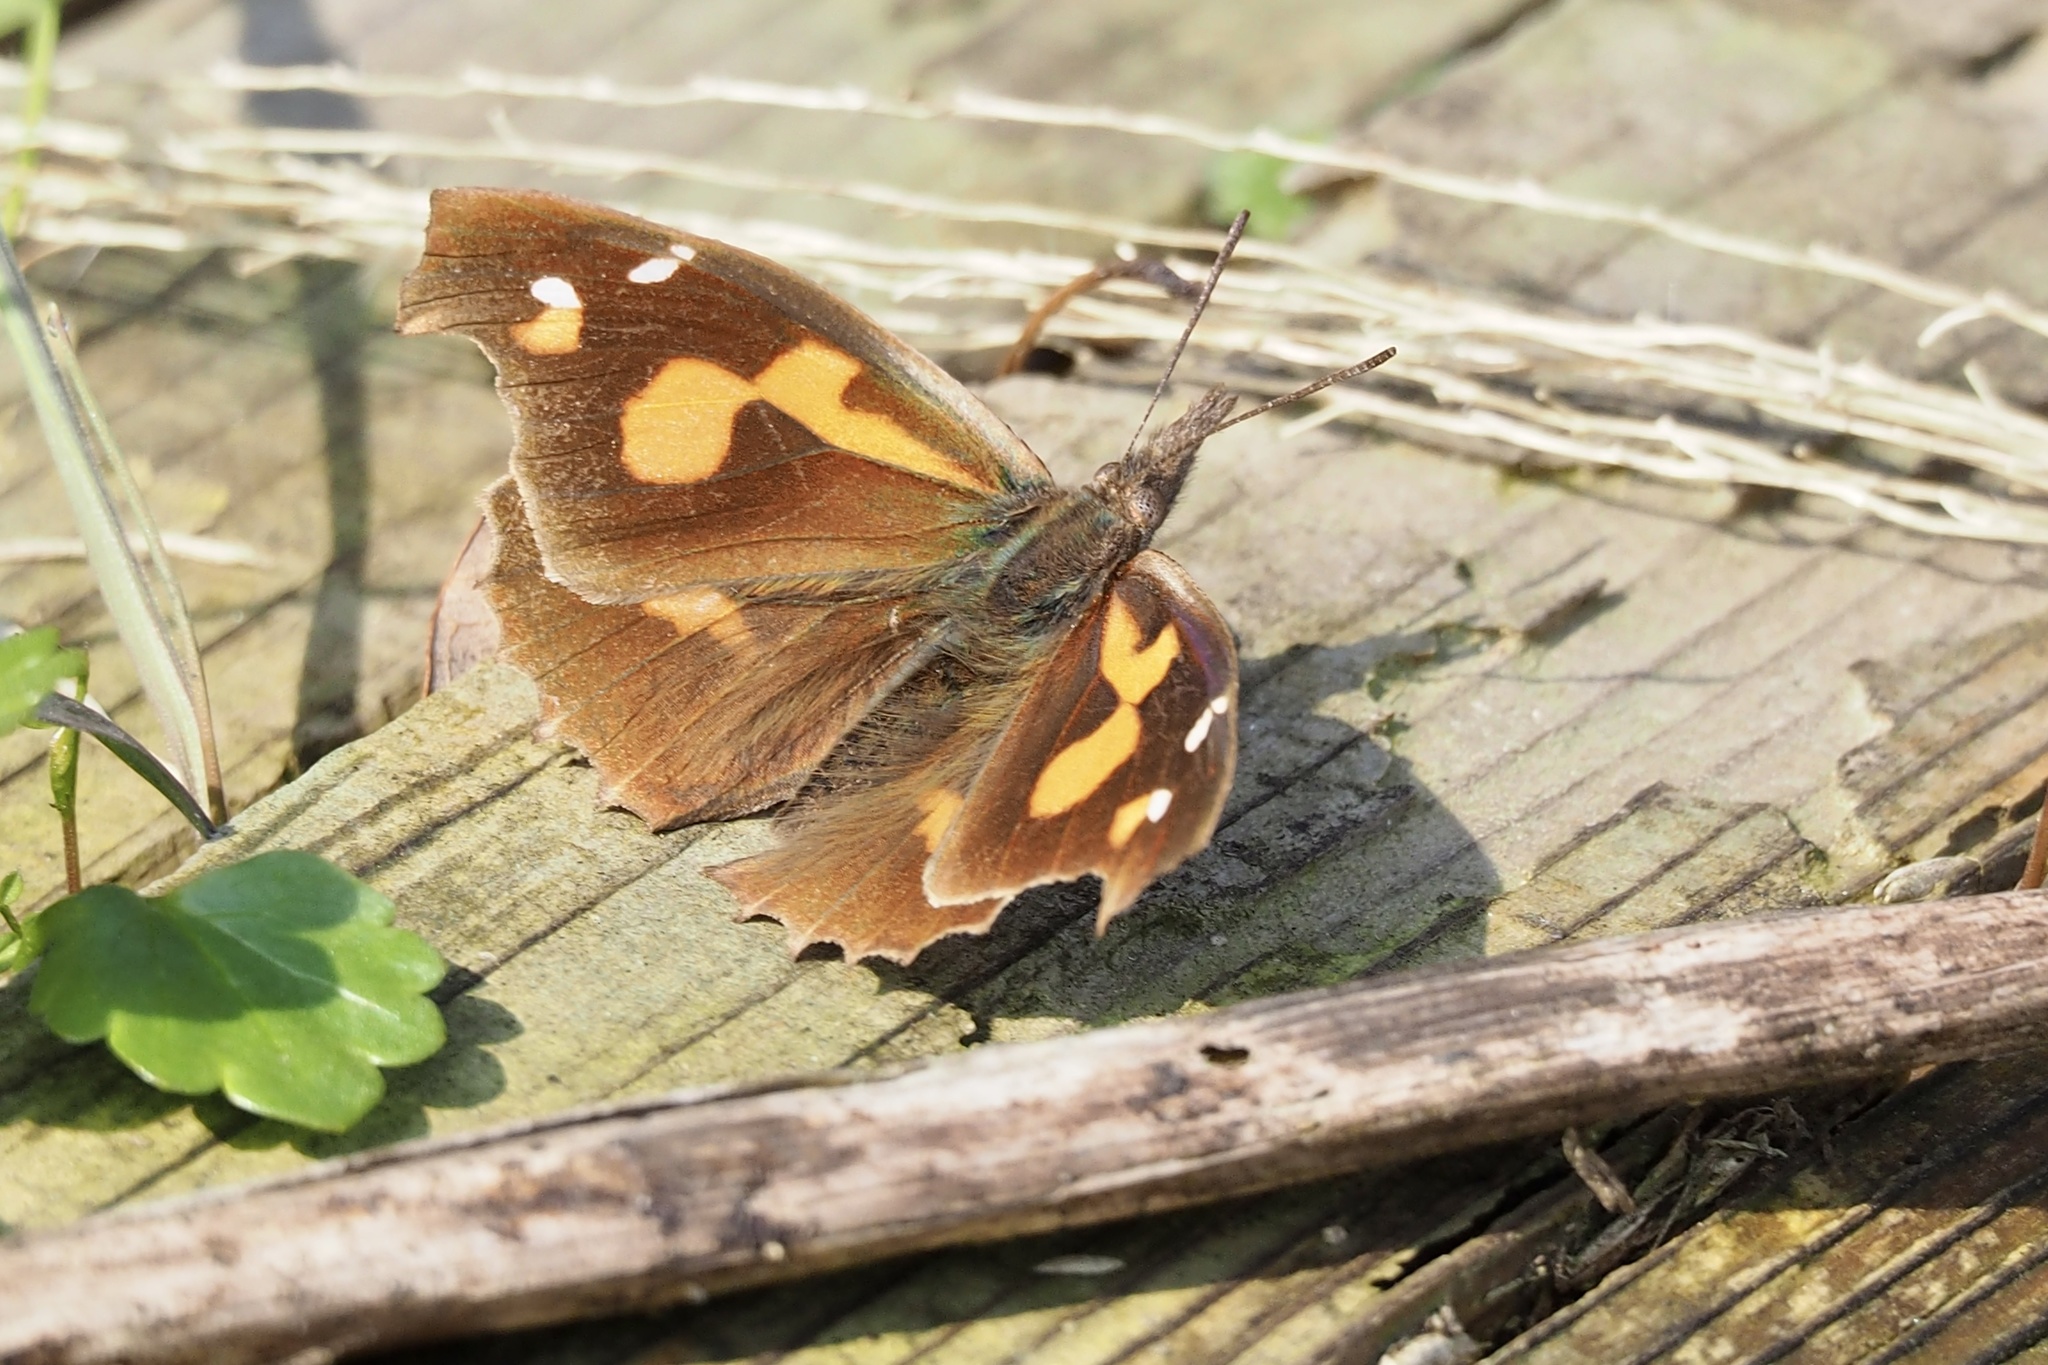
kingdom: Animalia
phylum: Arthropoda
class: Insecta
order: Lepidoptera
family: Nymphalidae
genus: Libythea
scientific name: Libythea lepita
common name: Common beak
